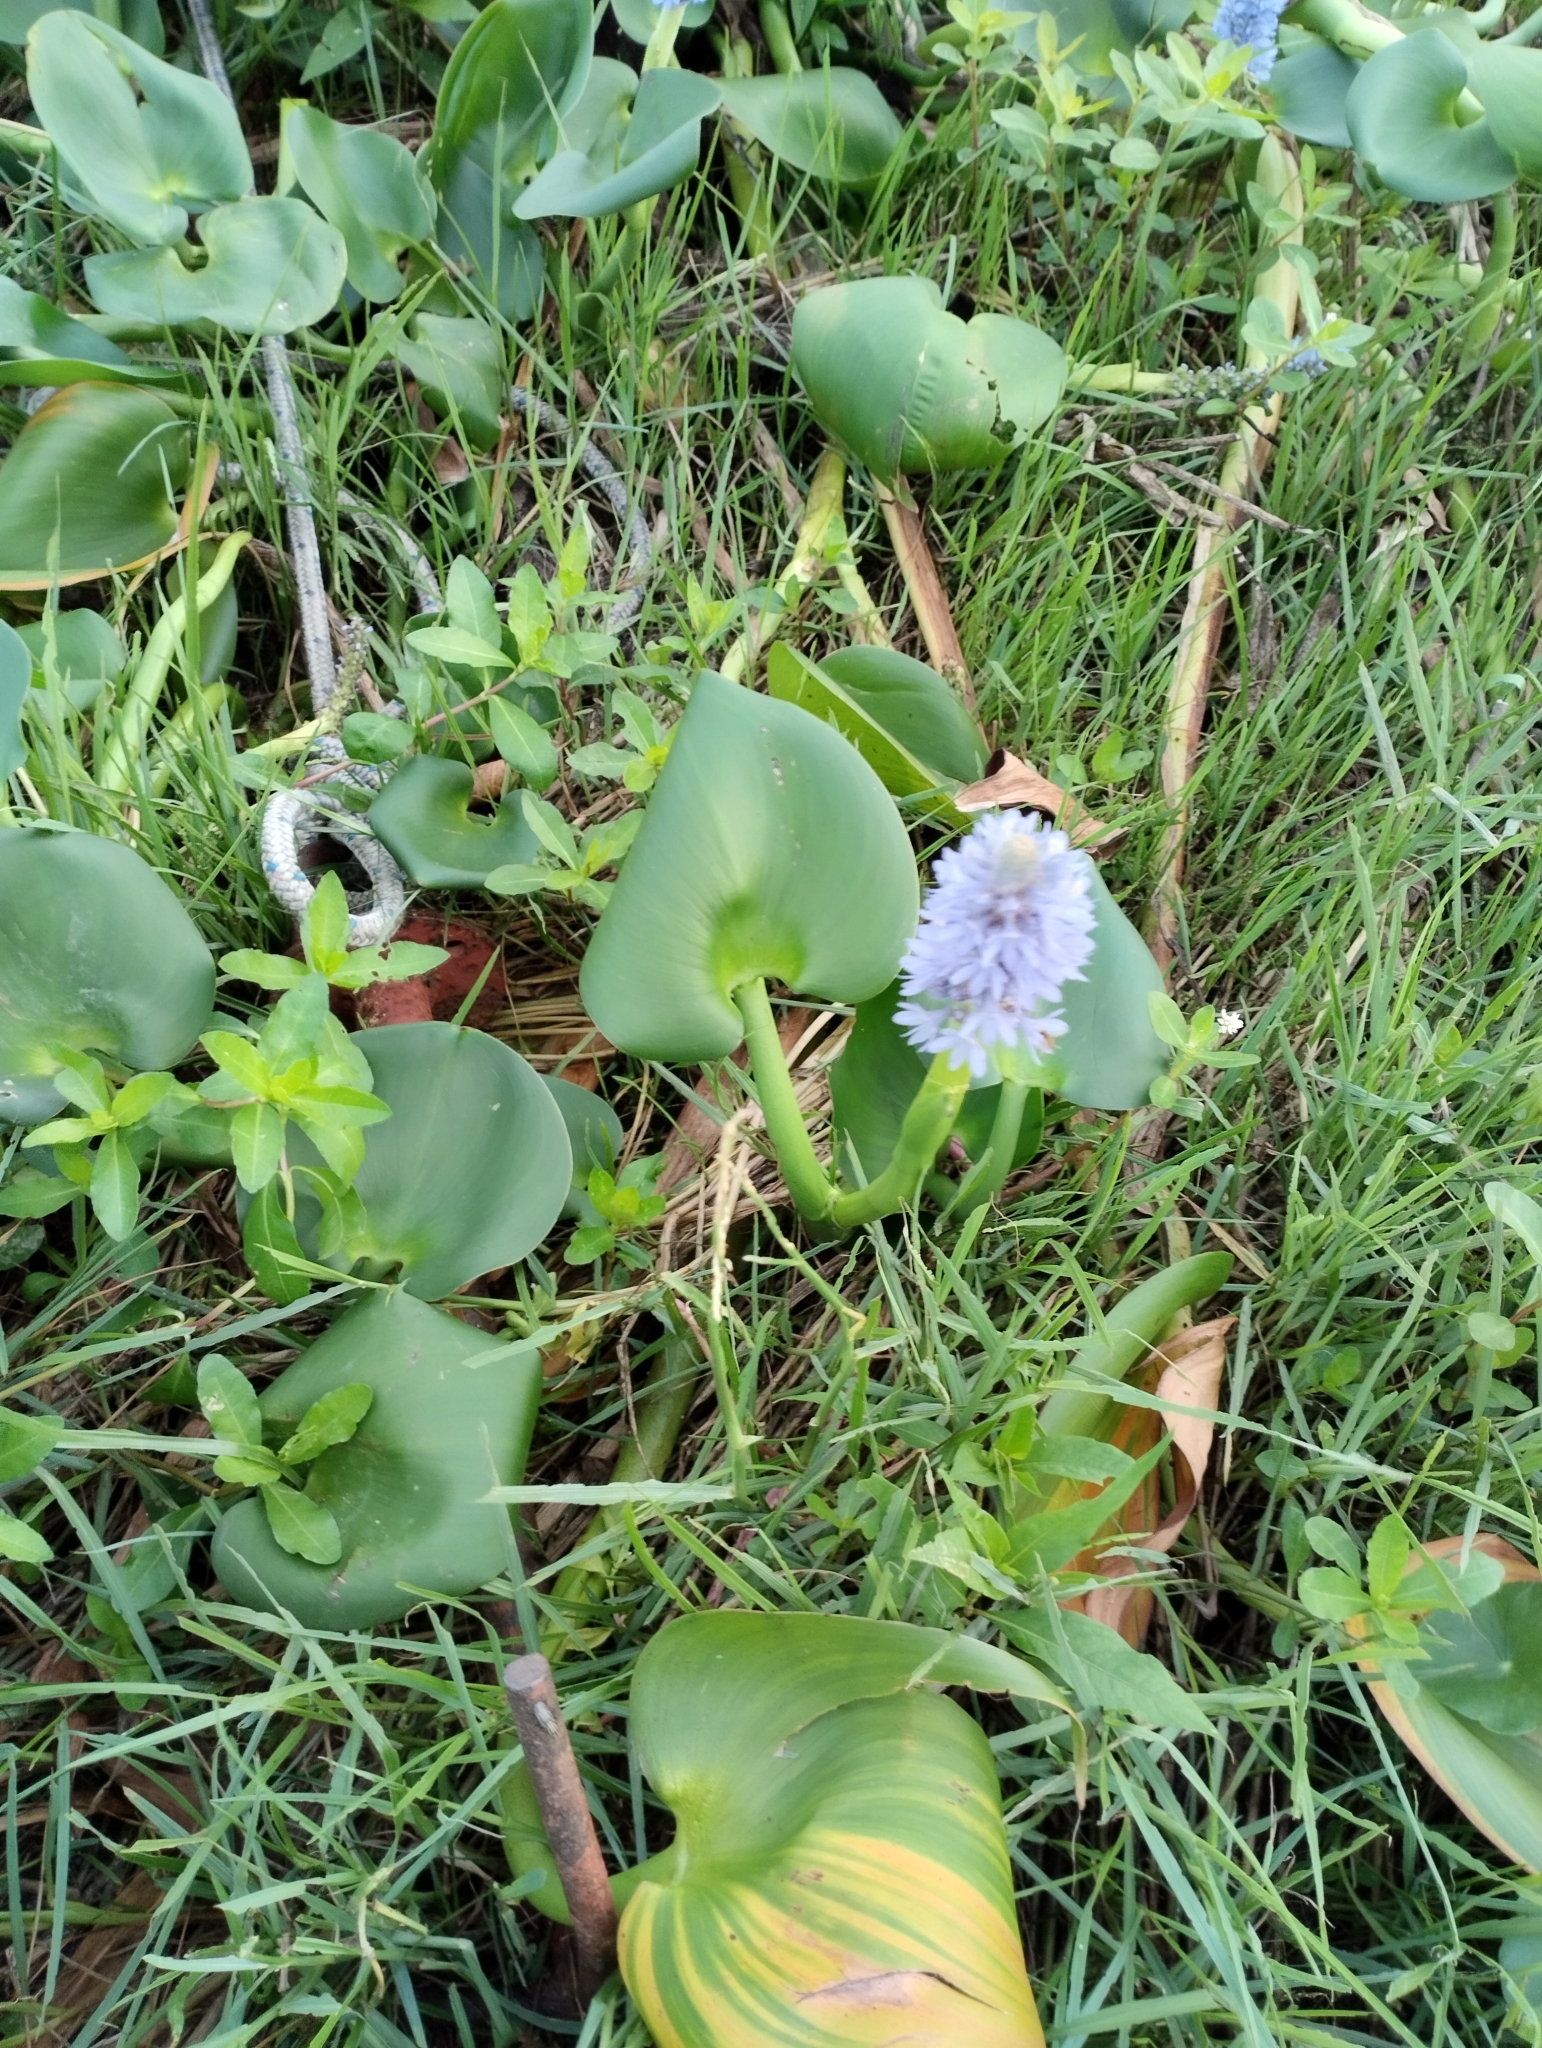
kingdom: Plantae
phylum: Tracheophyta
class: Liliopsida
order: Commelinales
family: Pontederiaceae
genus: Pontederia
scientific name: Pontederia rotundifolia
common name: Tropical pickerel-weed
